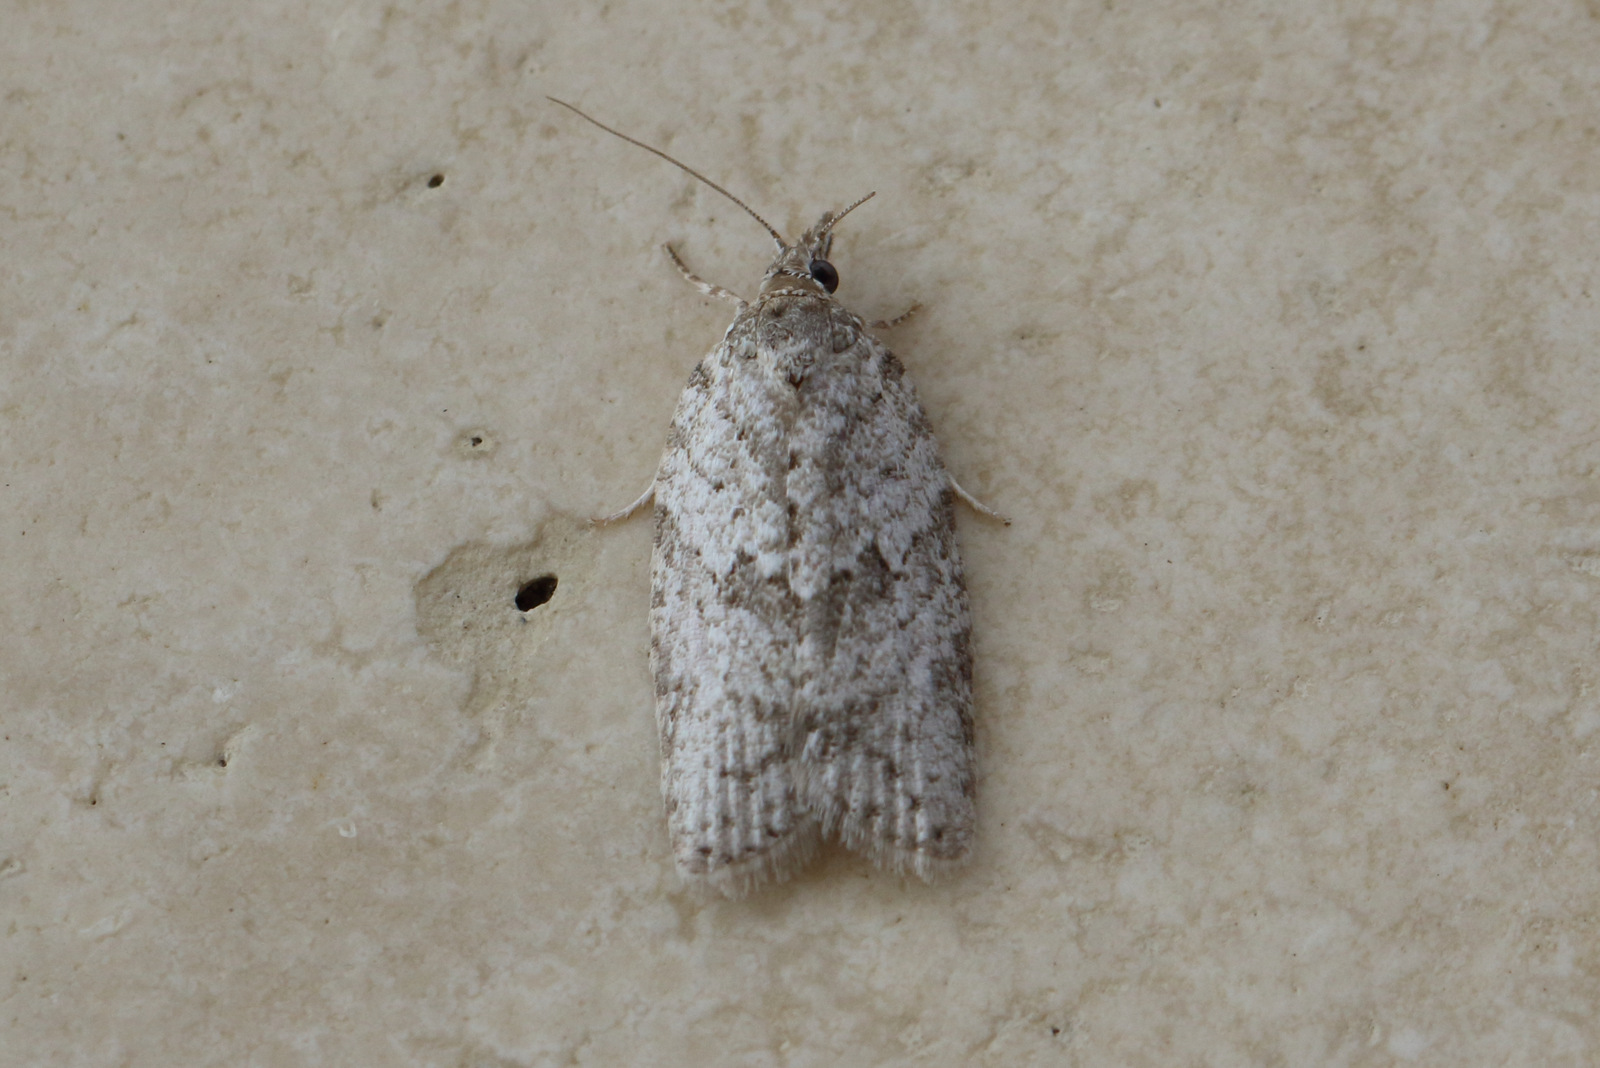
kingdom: Animalia
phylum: Arthropoda
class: Insecta
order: Lepidoptera
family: Tortricidae
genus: Isotenes
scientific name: Isotenes miserana
